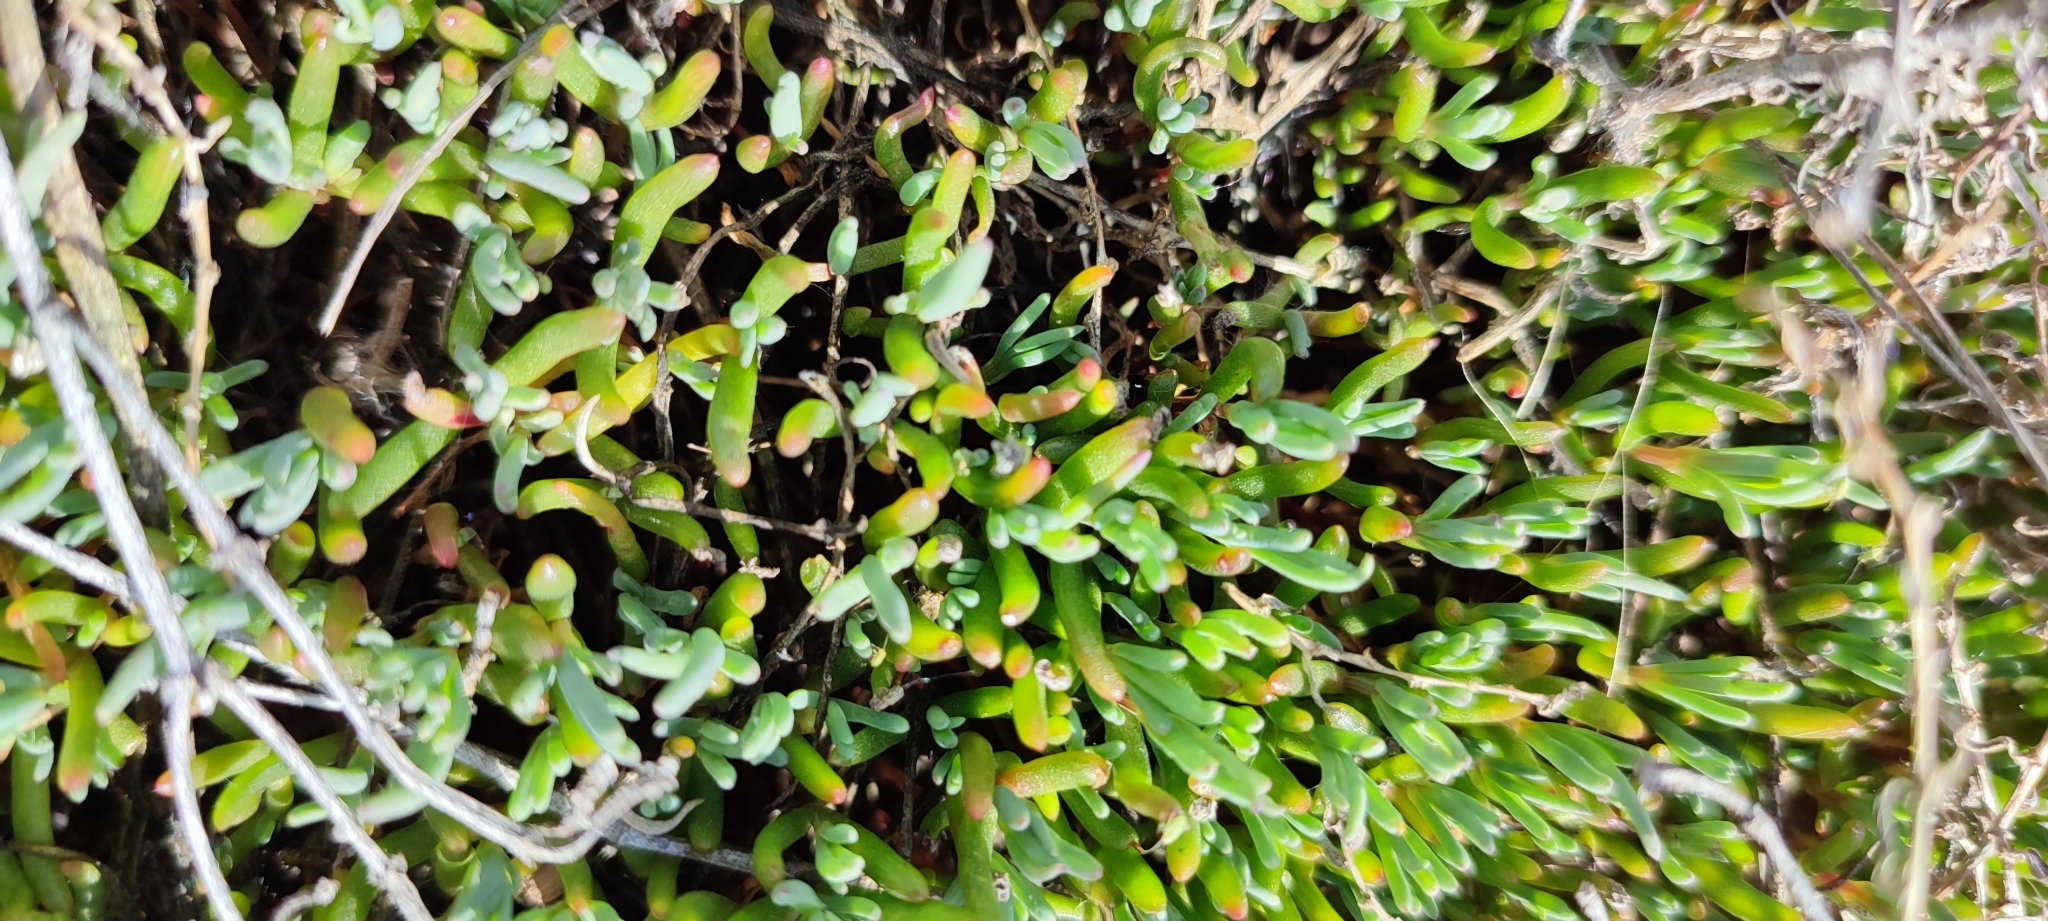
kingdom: Plantae
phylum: Tracheophyta
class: Magnoliopsida
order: Caryophyllales
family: Amaranthaceae
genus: Salicornia
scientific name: Salicornia perennans
